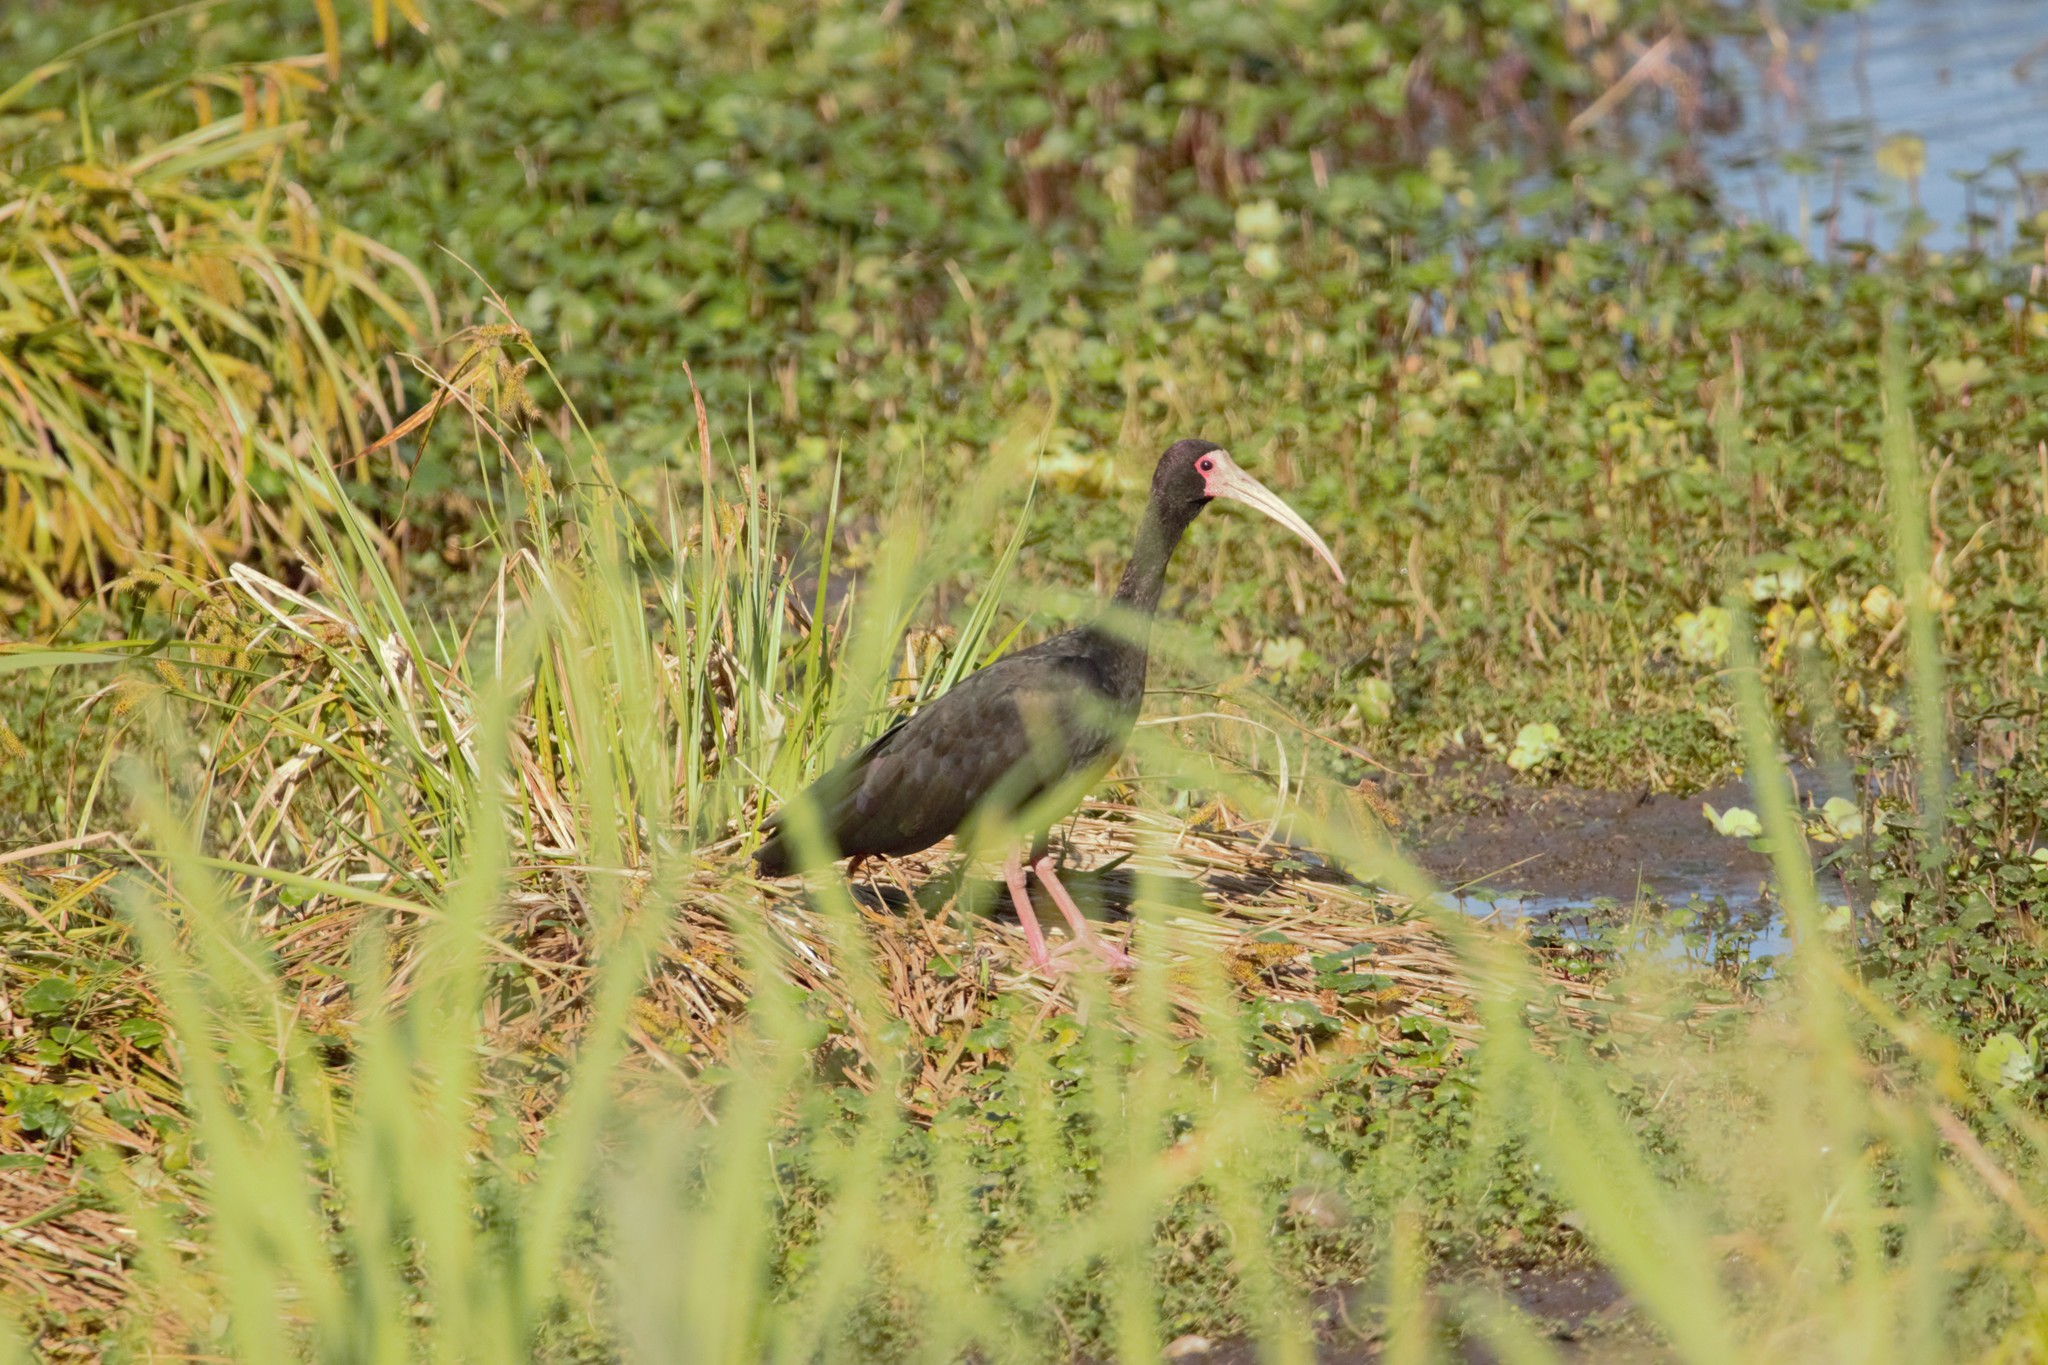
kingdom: Animalia
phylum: Chordata
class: Aves
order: Pelecaniformes
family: Threskiornithidae
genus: Phimosus
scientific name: Phimosus infuscatus
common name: Bare-faced ibis
